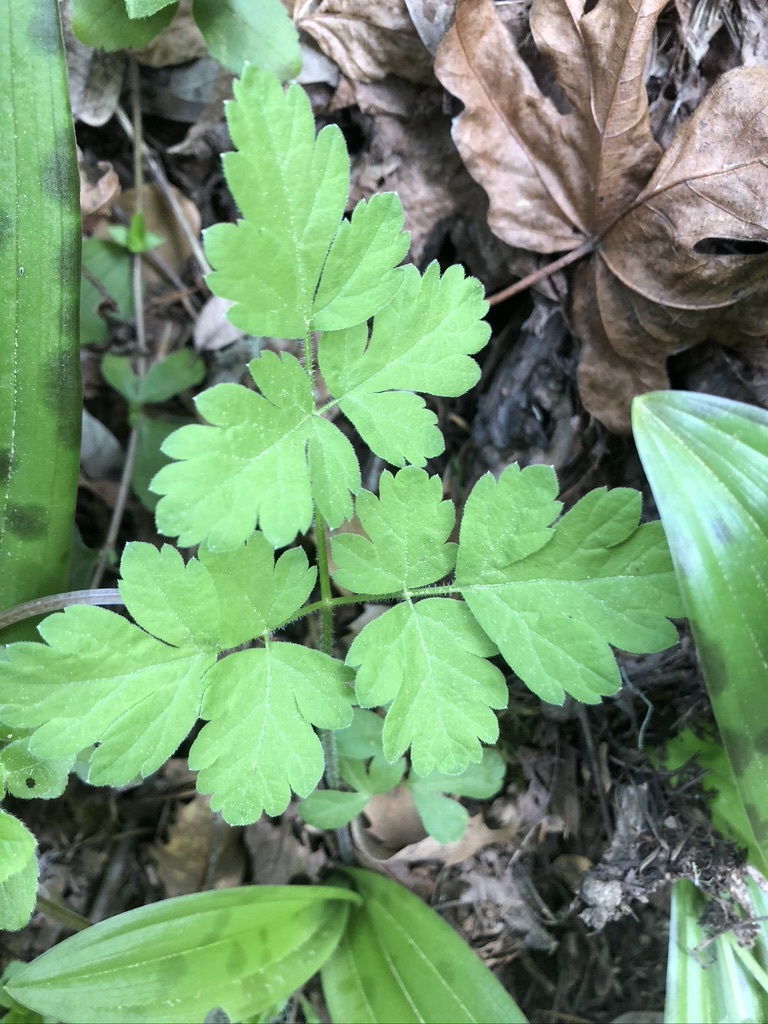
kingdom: Plantae
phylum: Tracheophyta
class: Magnoliopsida
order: Apiales
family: Apiaceae
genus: Osmorhiza
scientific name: Osmorhiza berteroi
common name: Mountain sweet cicely
